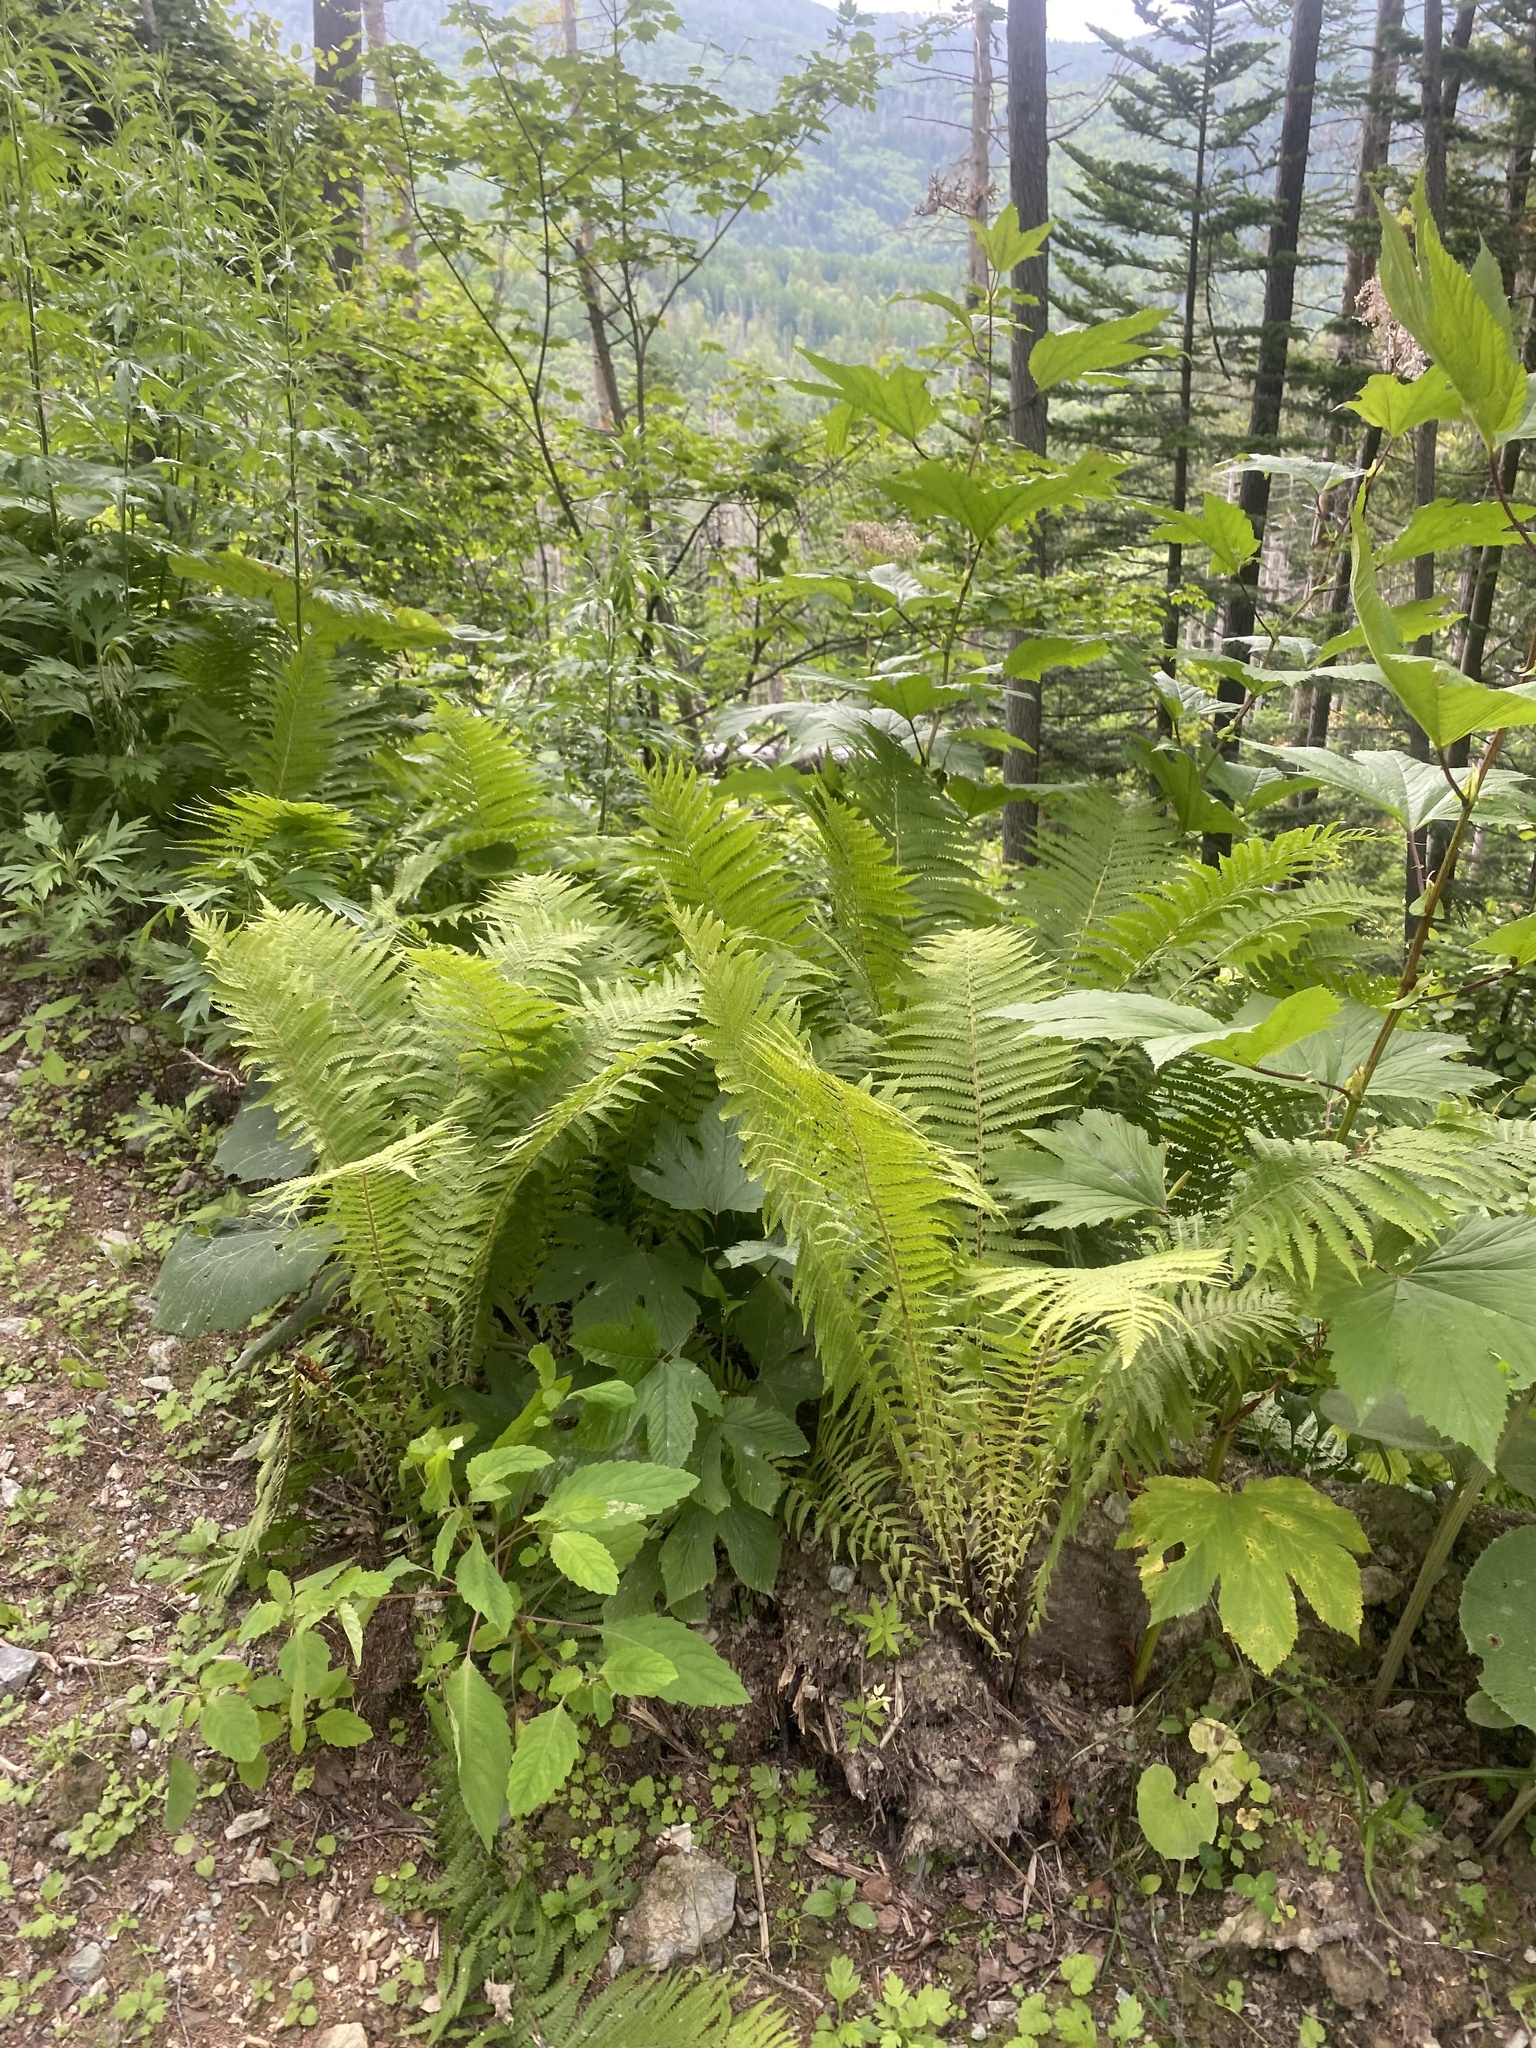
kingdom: Plantae
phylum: Tracheophyta
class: Polypodiopsida
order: Polypodiales
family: Onocleaceae
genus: Matteuccia
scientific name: Matteuccia struthiopteris
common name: Ostrich fern
